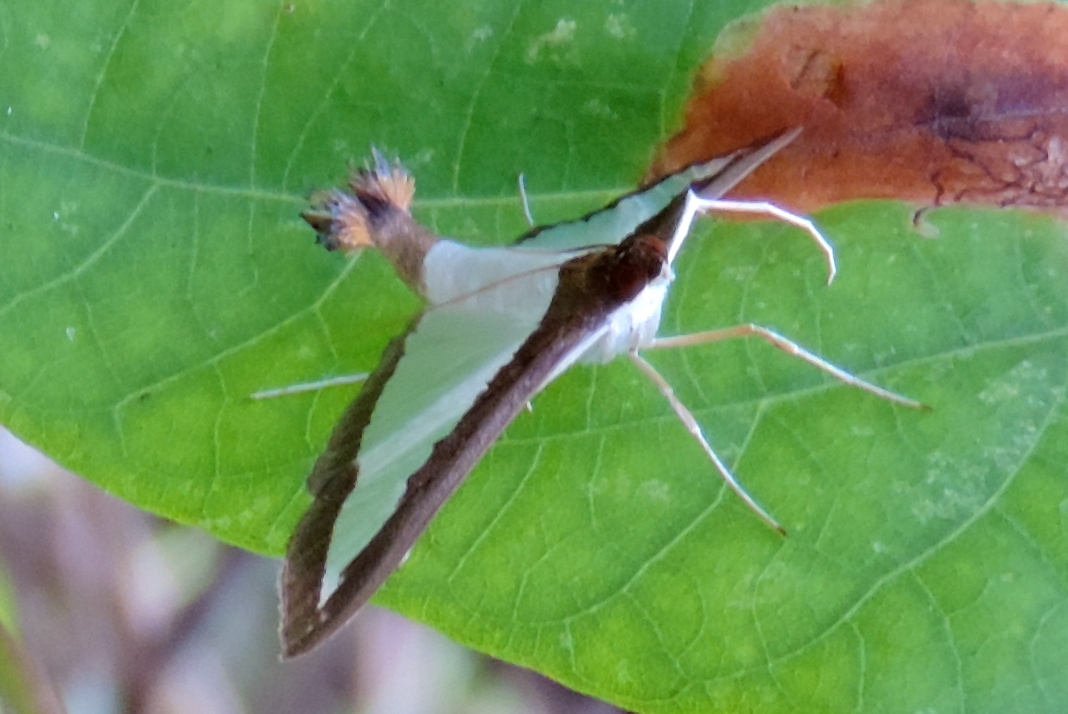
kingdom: Animalia
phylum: Arthropoda
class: Insecta
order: Lepidoptera
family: Crambidae
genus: Diaphania
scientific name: Diaphania
